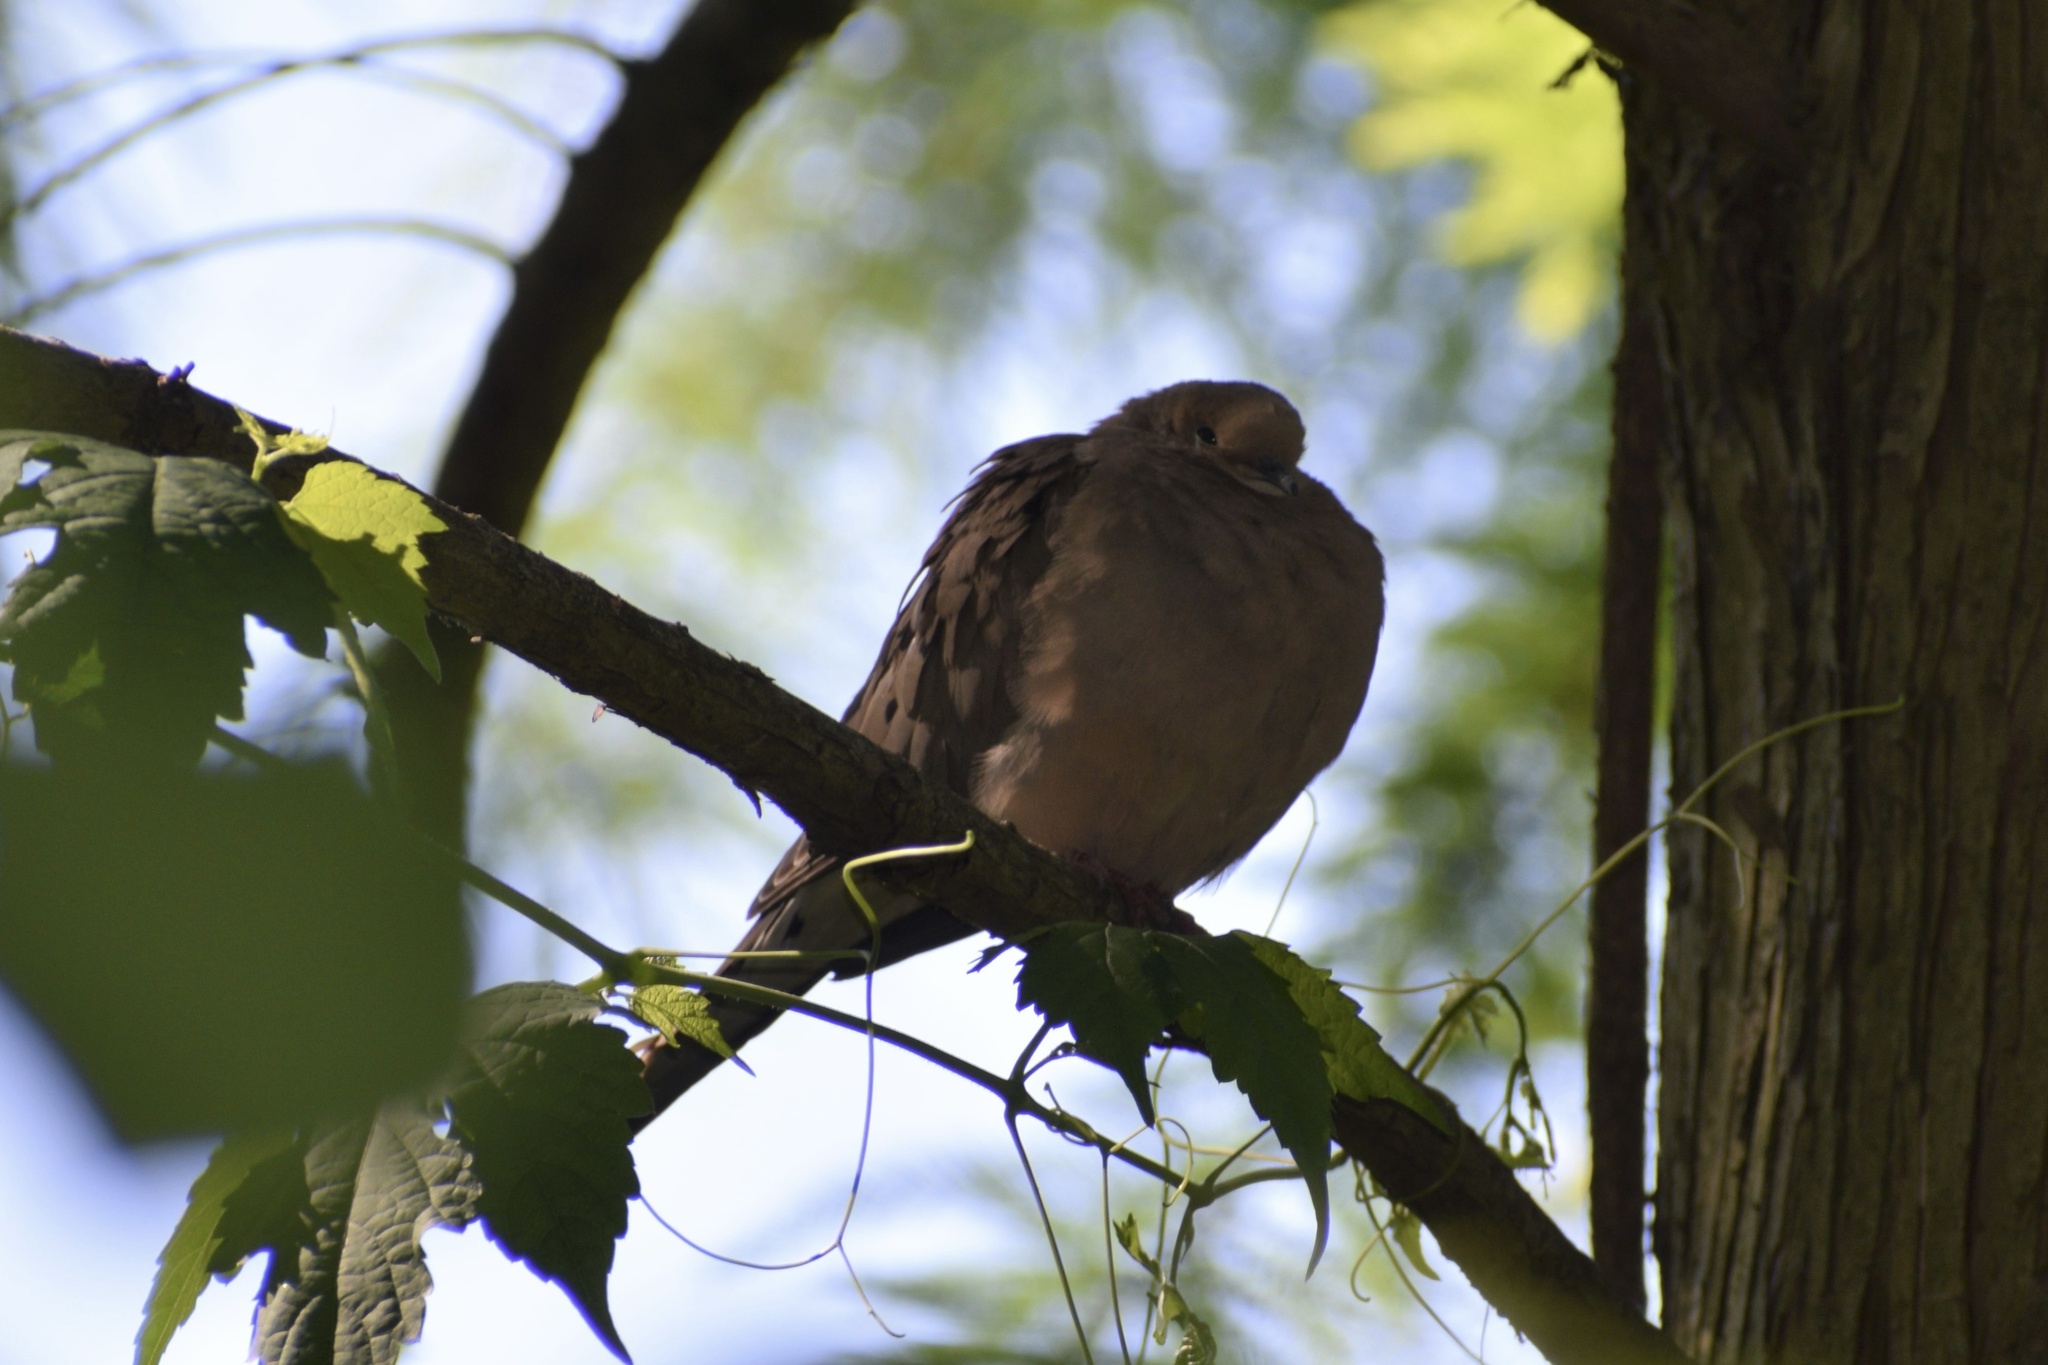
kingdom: Animalia
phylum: Chordata
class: Aves
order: Columbiformes
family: Columbidae
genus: Zenaida
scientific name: Zenaida macroura
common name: Mourning dove
